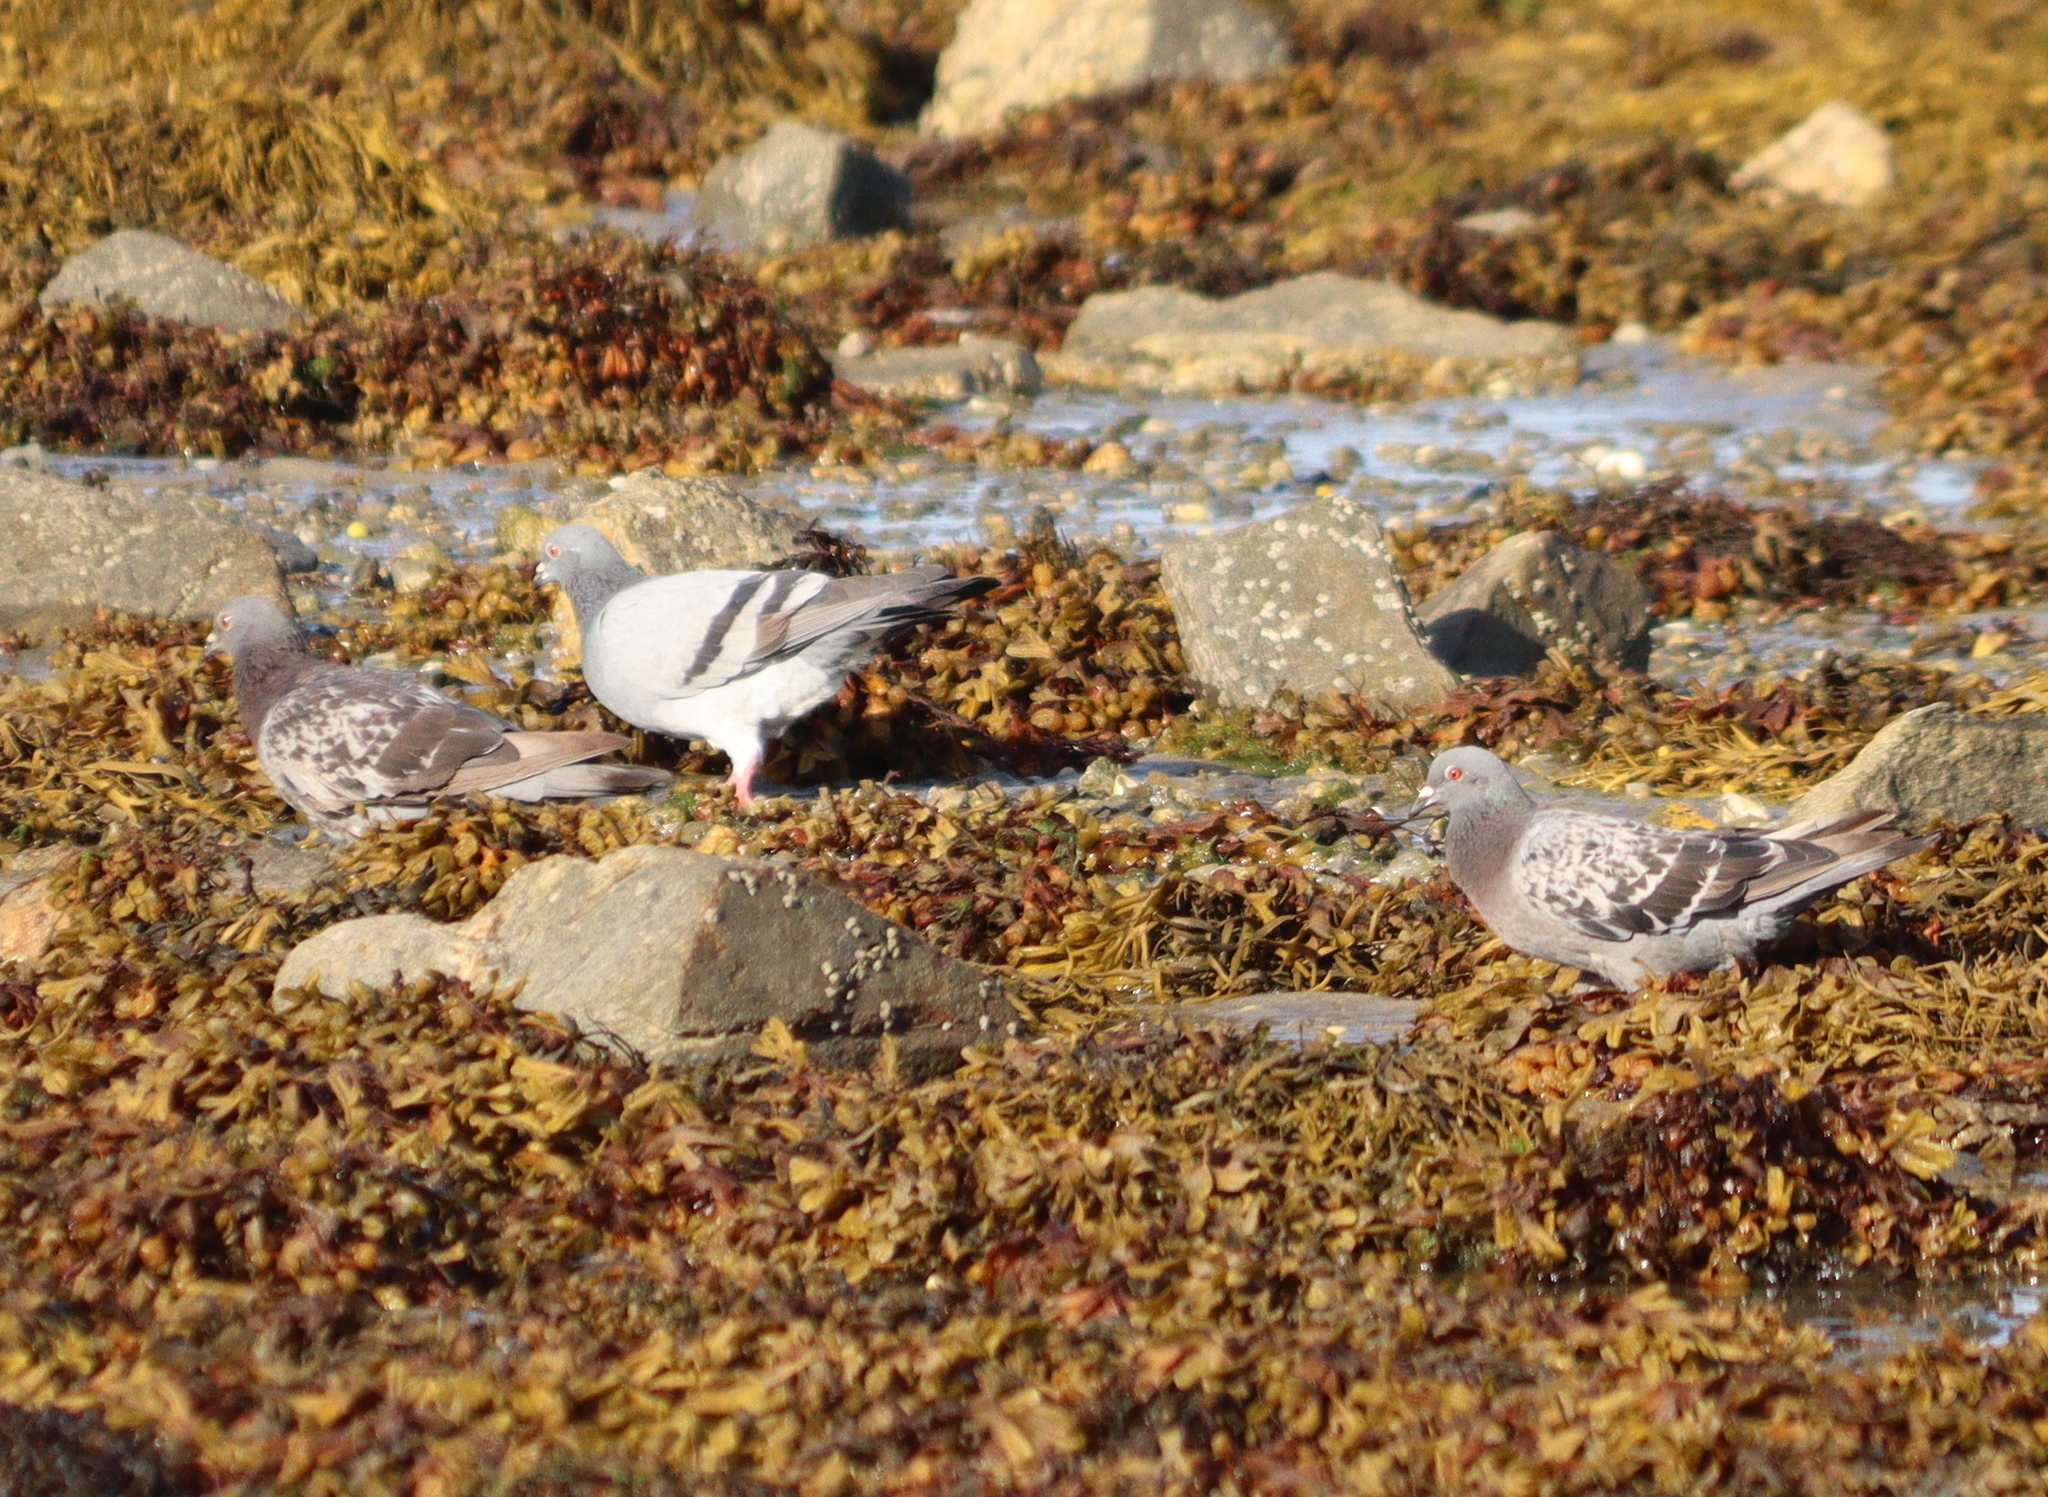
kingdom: Animalia
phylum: Chordata
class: Aves
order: Columbiformes
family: Columbidae
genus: Columba
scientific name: Columba livia
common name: Rock pigeon
